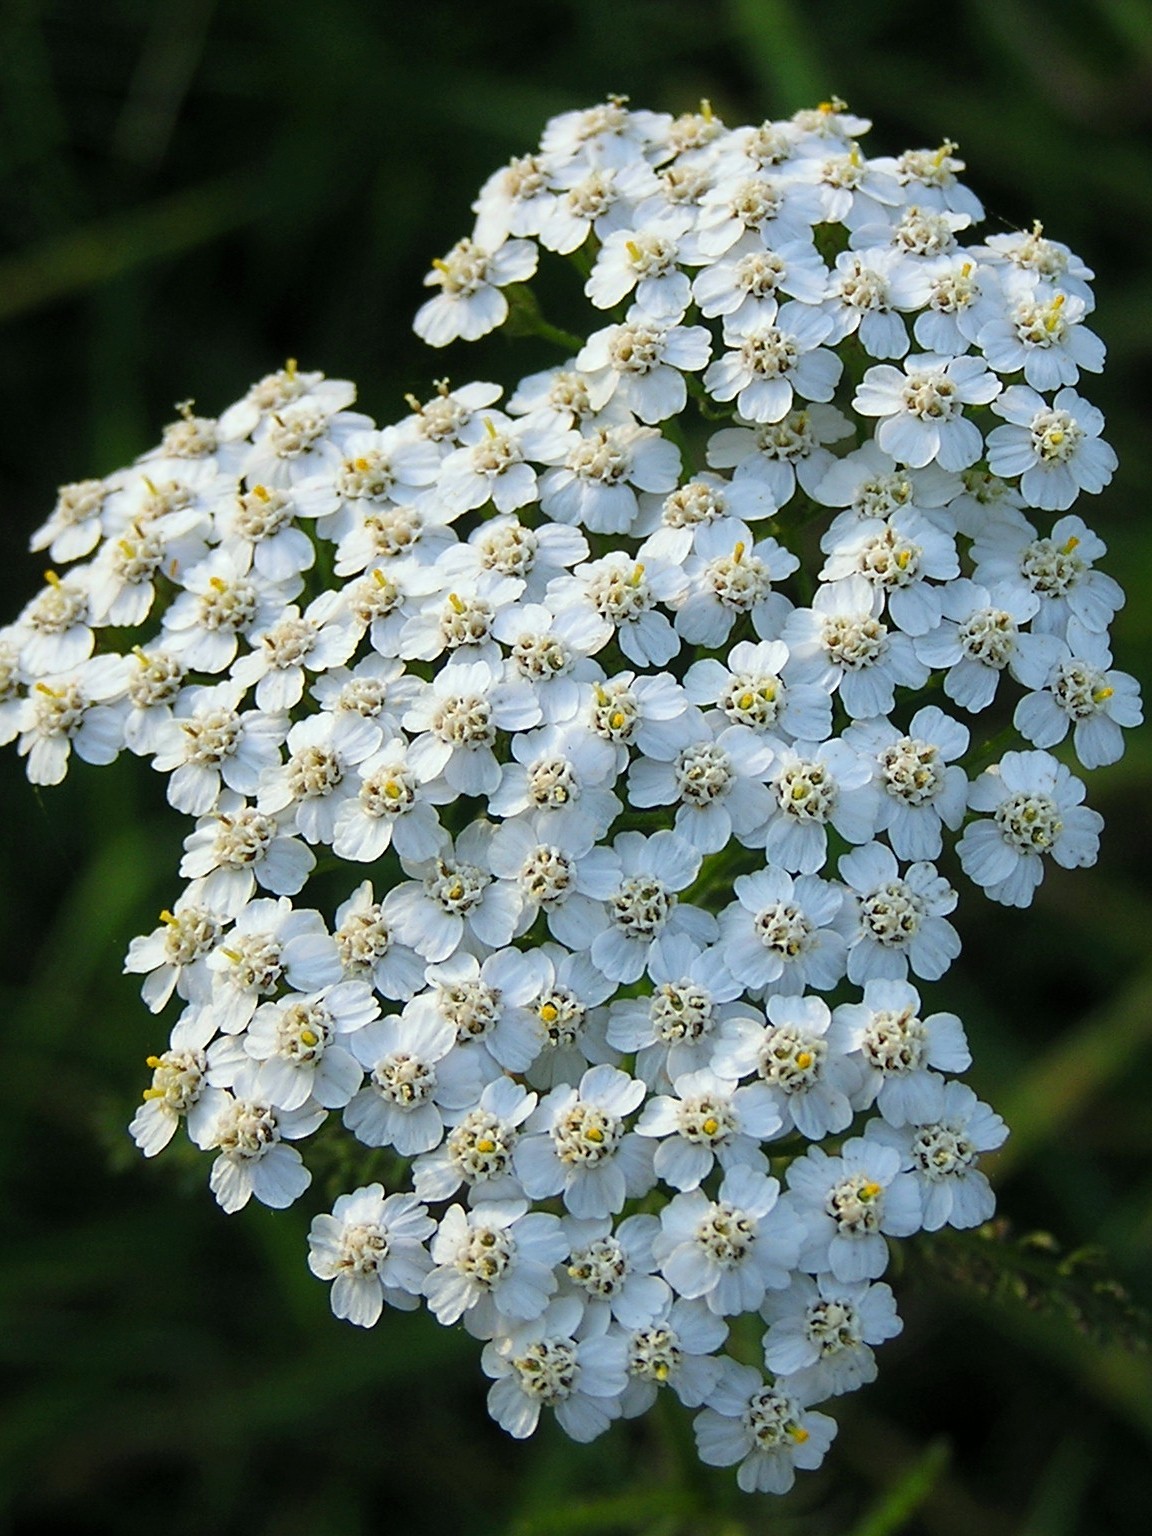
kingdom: Plantae
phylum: Tracheophyta
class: Magnoliopsida
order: Asterales
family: Asteraceae
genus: Achillea
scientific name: Achillea millefolium
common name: Yarrow
